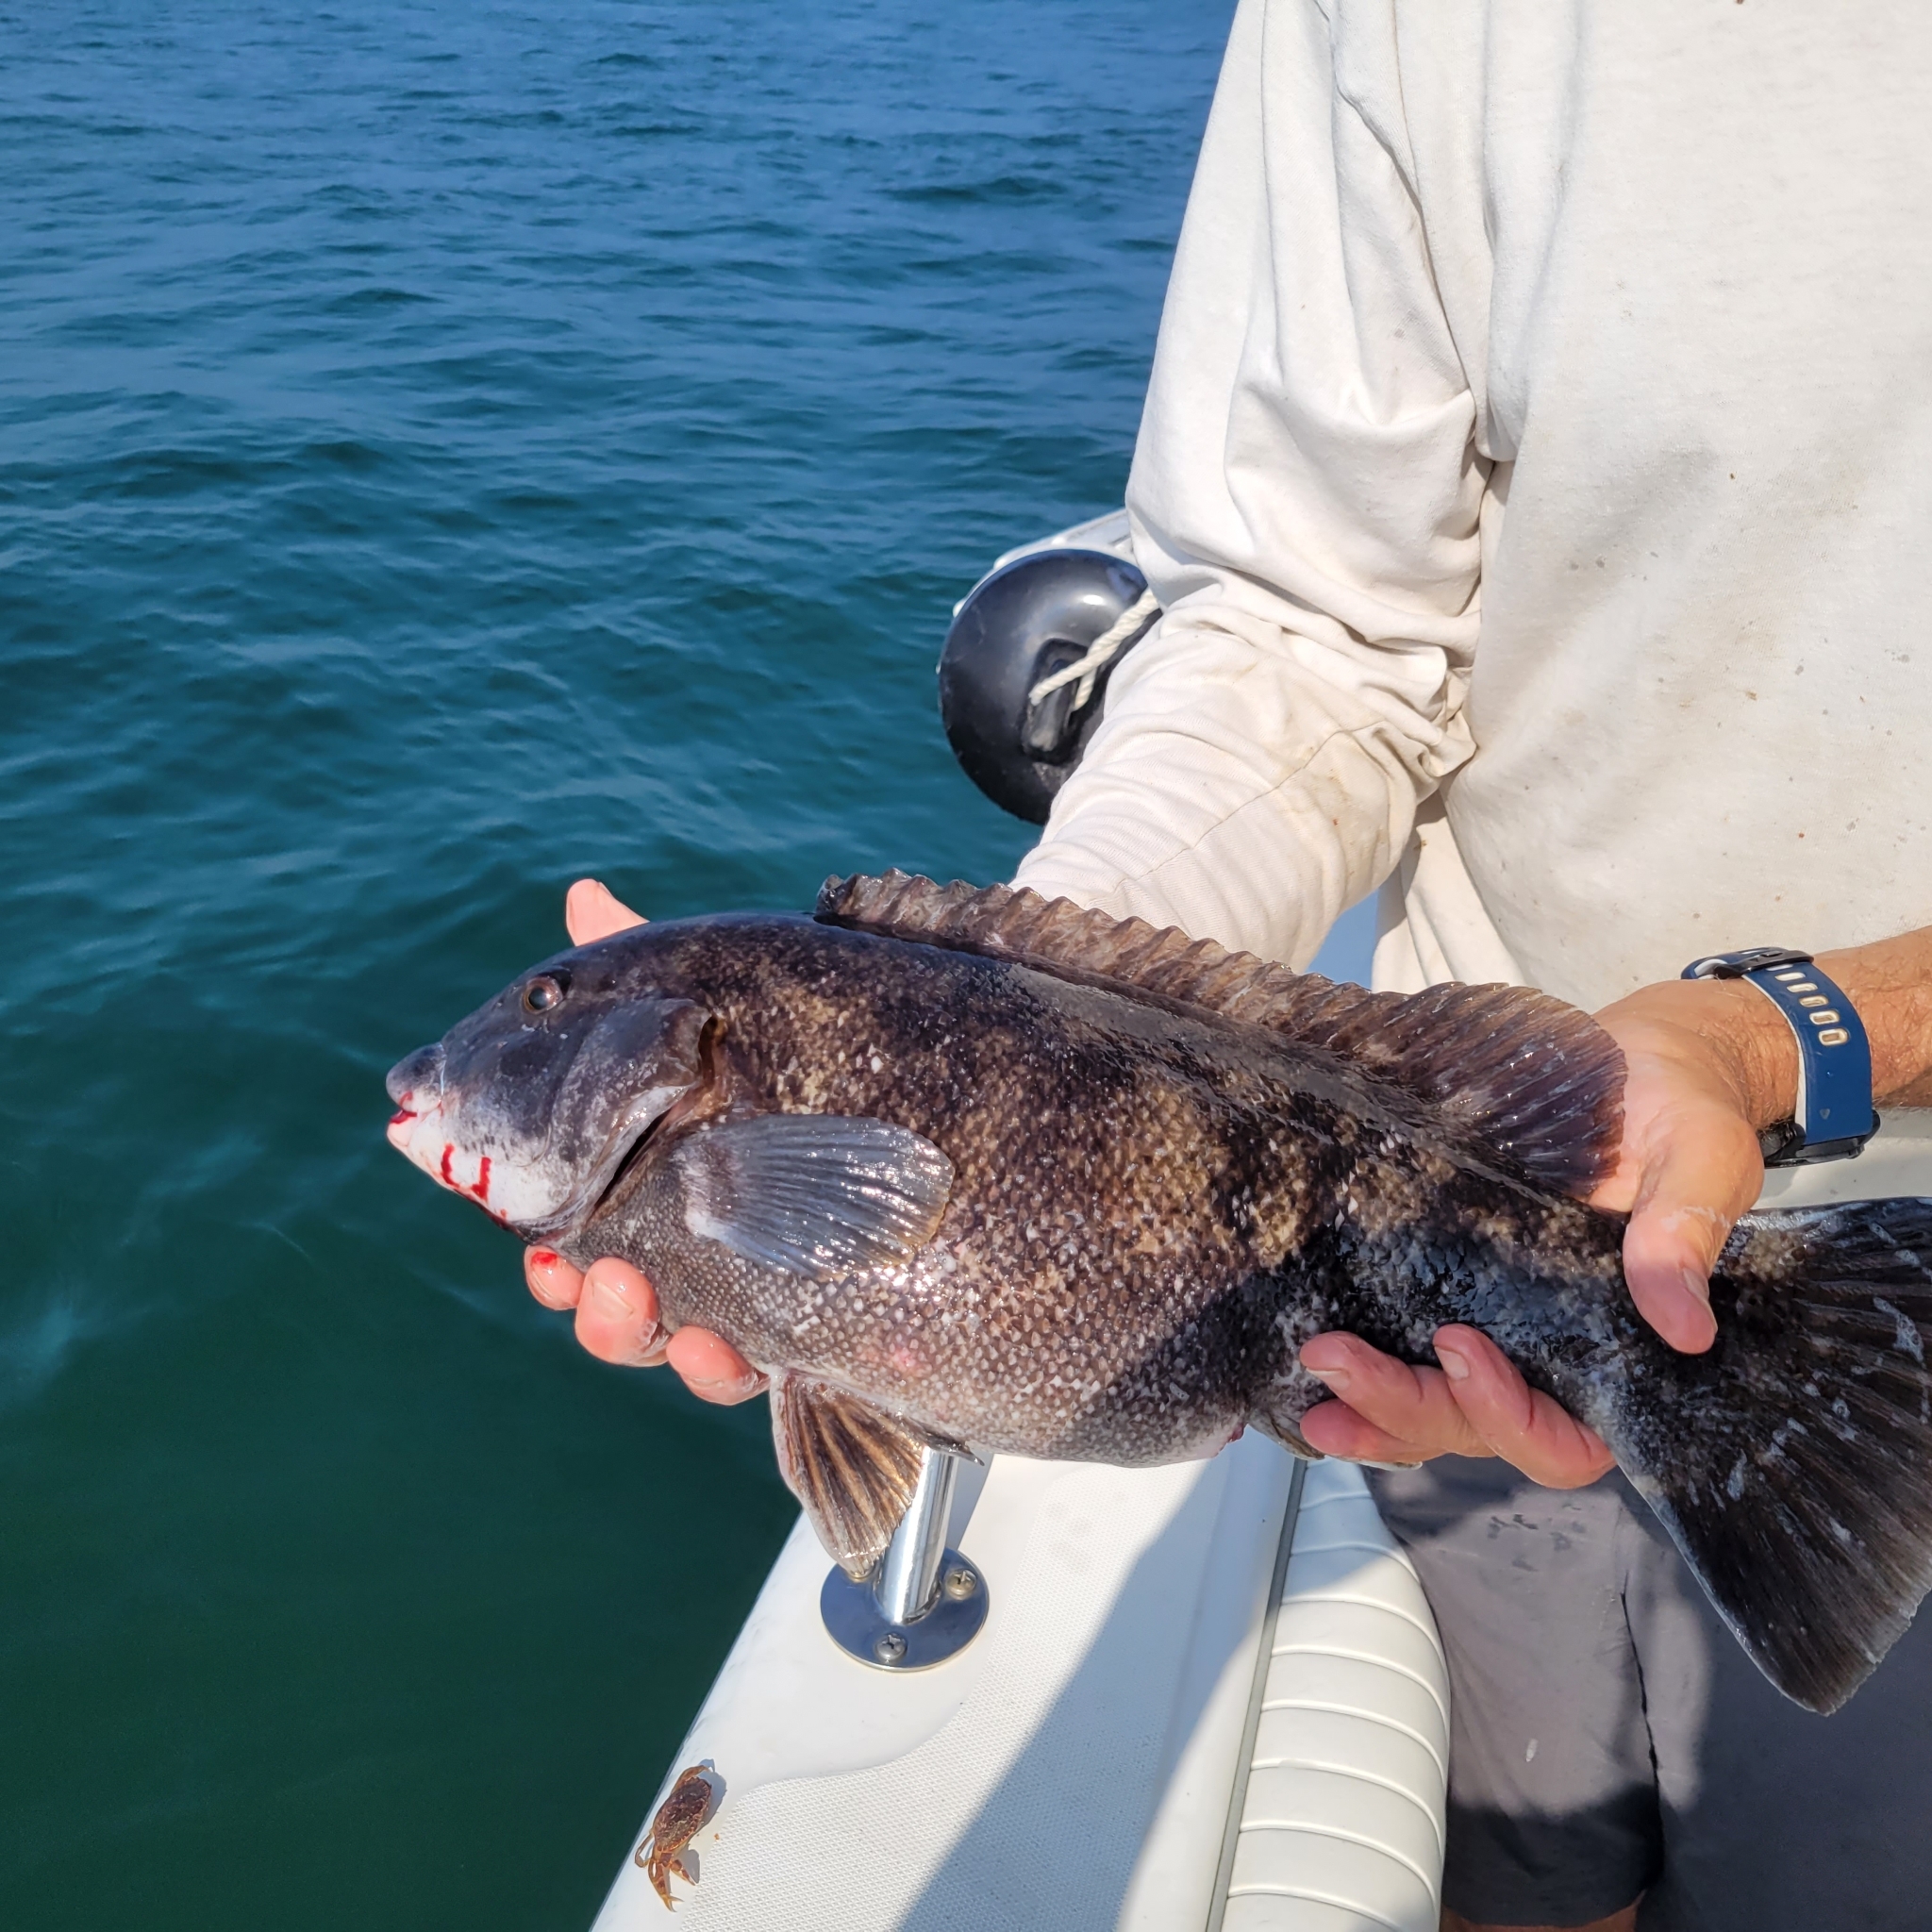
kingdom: Animalia
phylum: Chordata
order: Perciformes
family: Labridae
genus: Tautoga
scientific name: Tautoga onitis
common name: Tautog
